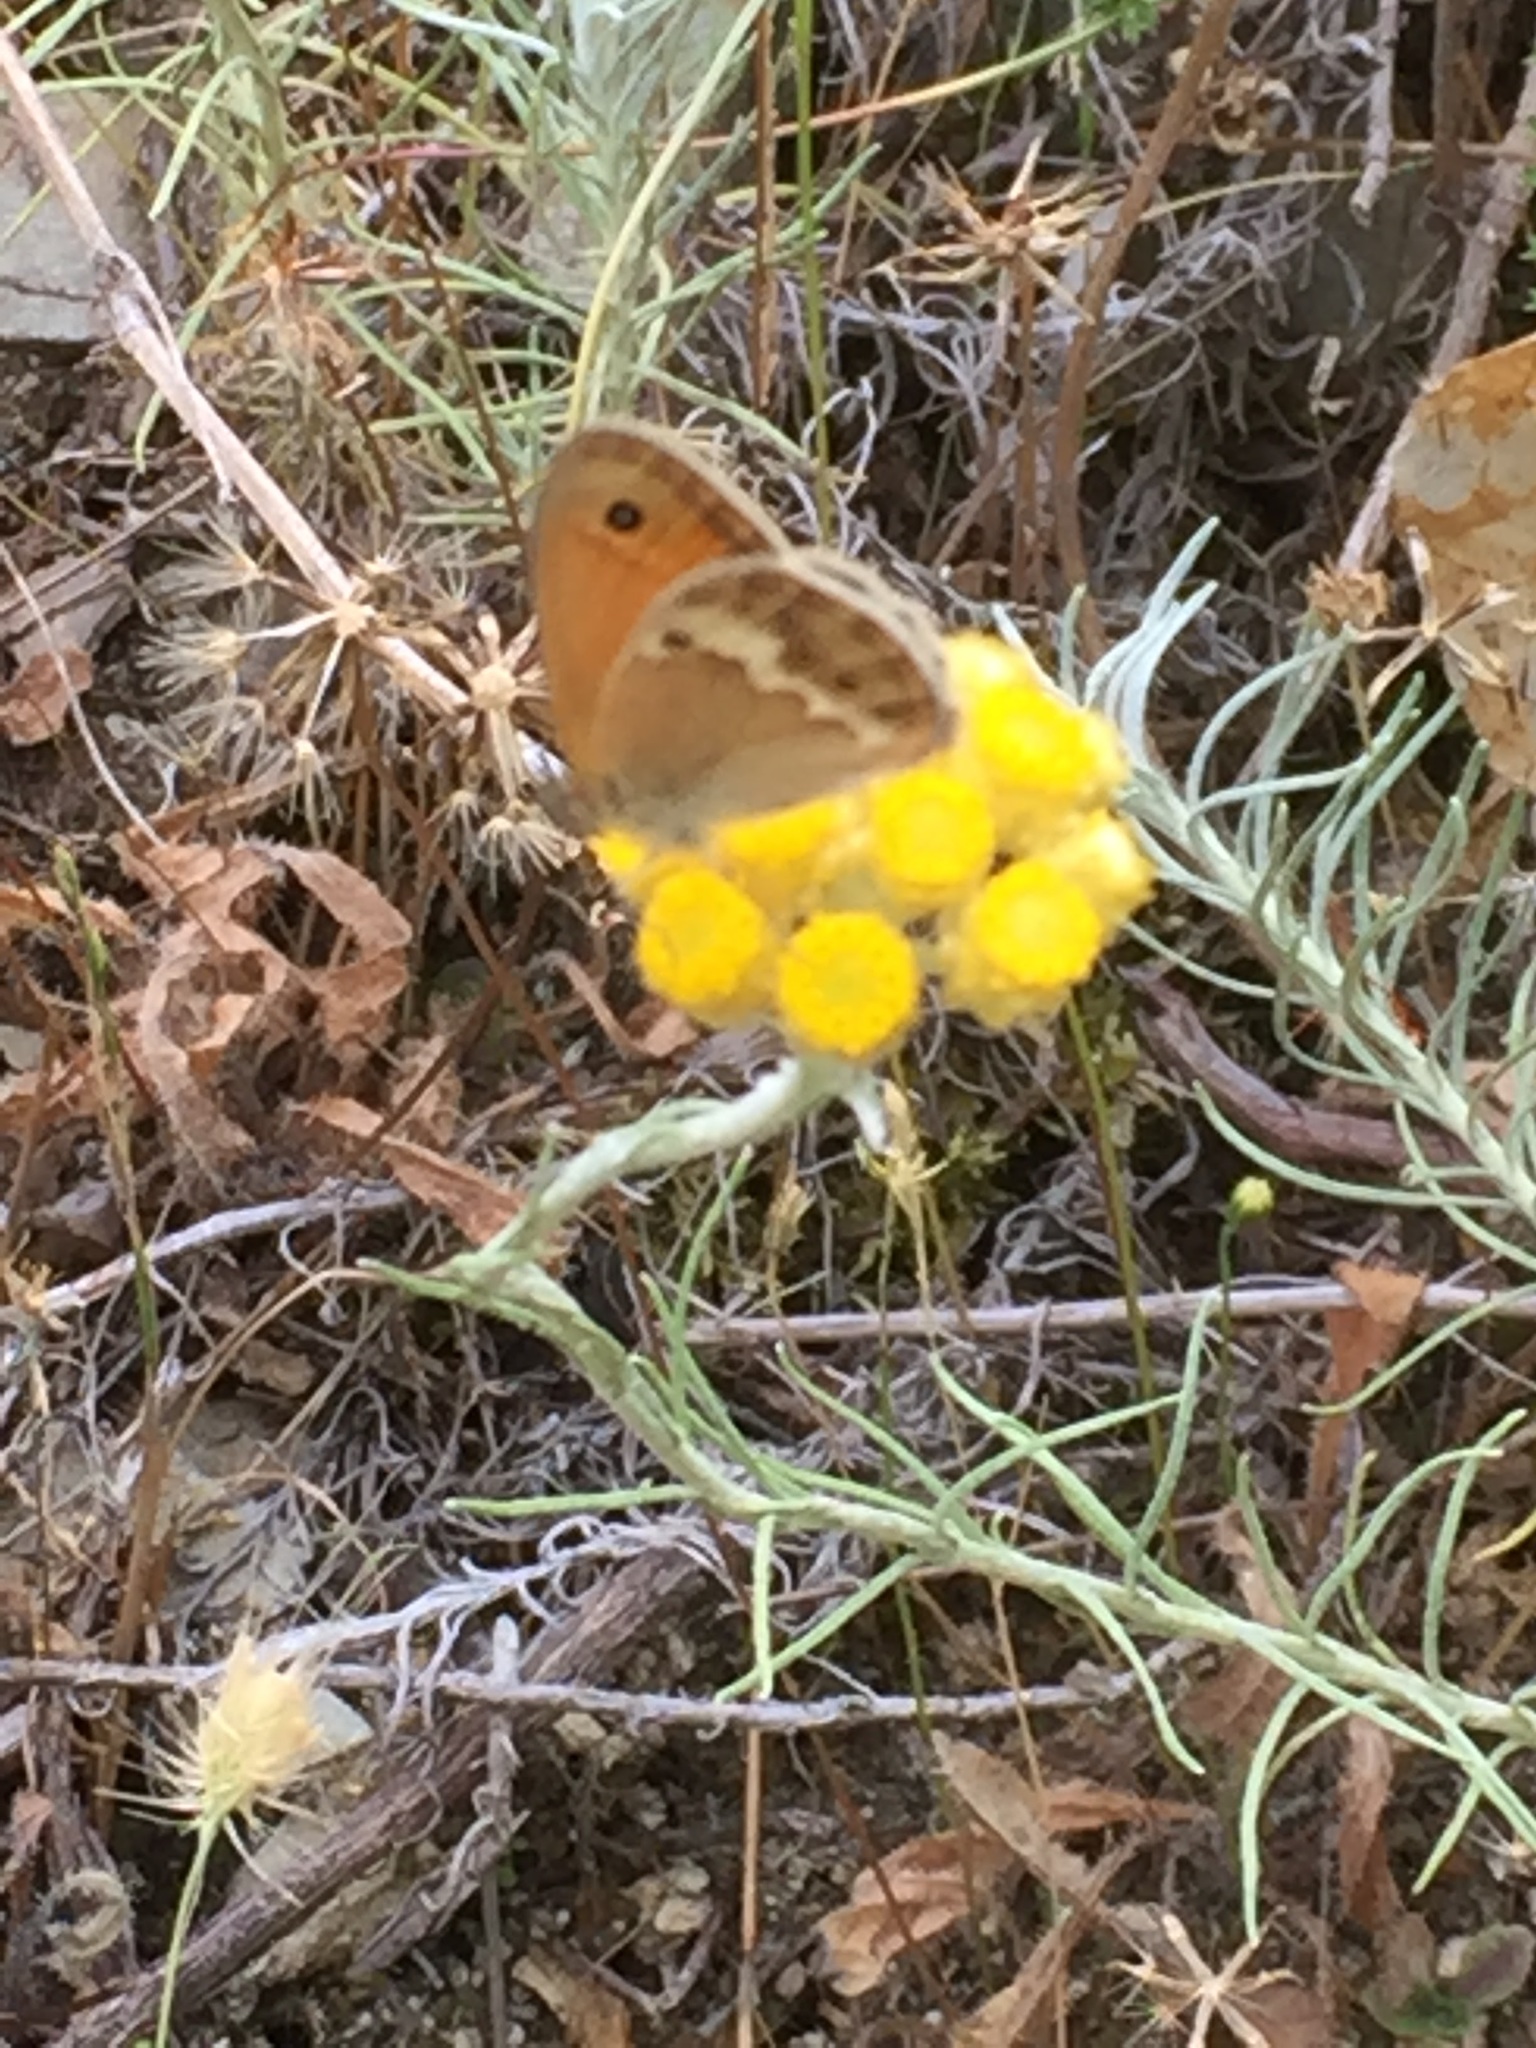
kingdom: Animalia
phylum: Arthropoda
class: Insecta
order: Lepidoptera
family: Nymphalidae
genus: Coenonympha
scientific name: Coenonympha dorus
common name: Dusky heath
